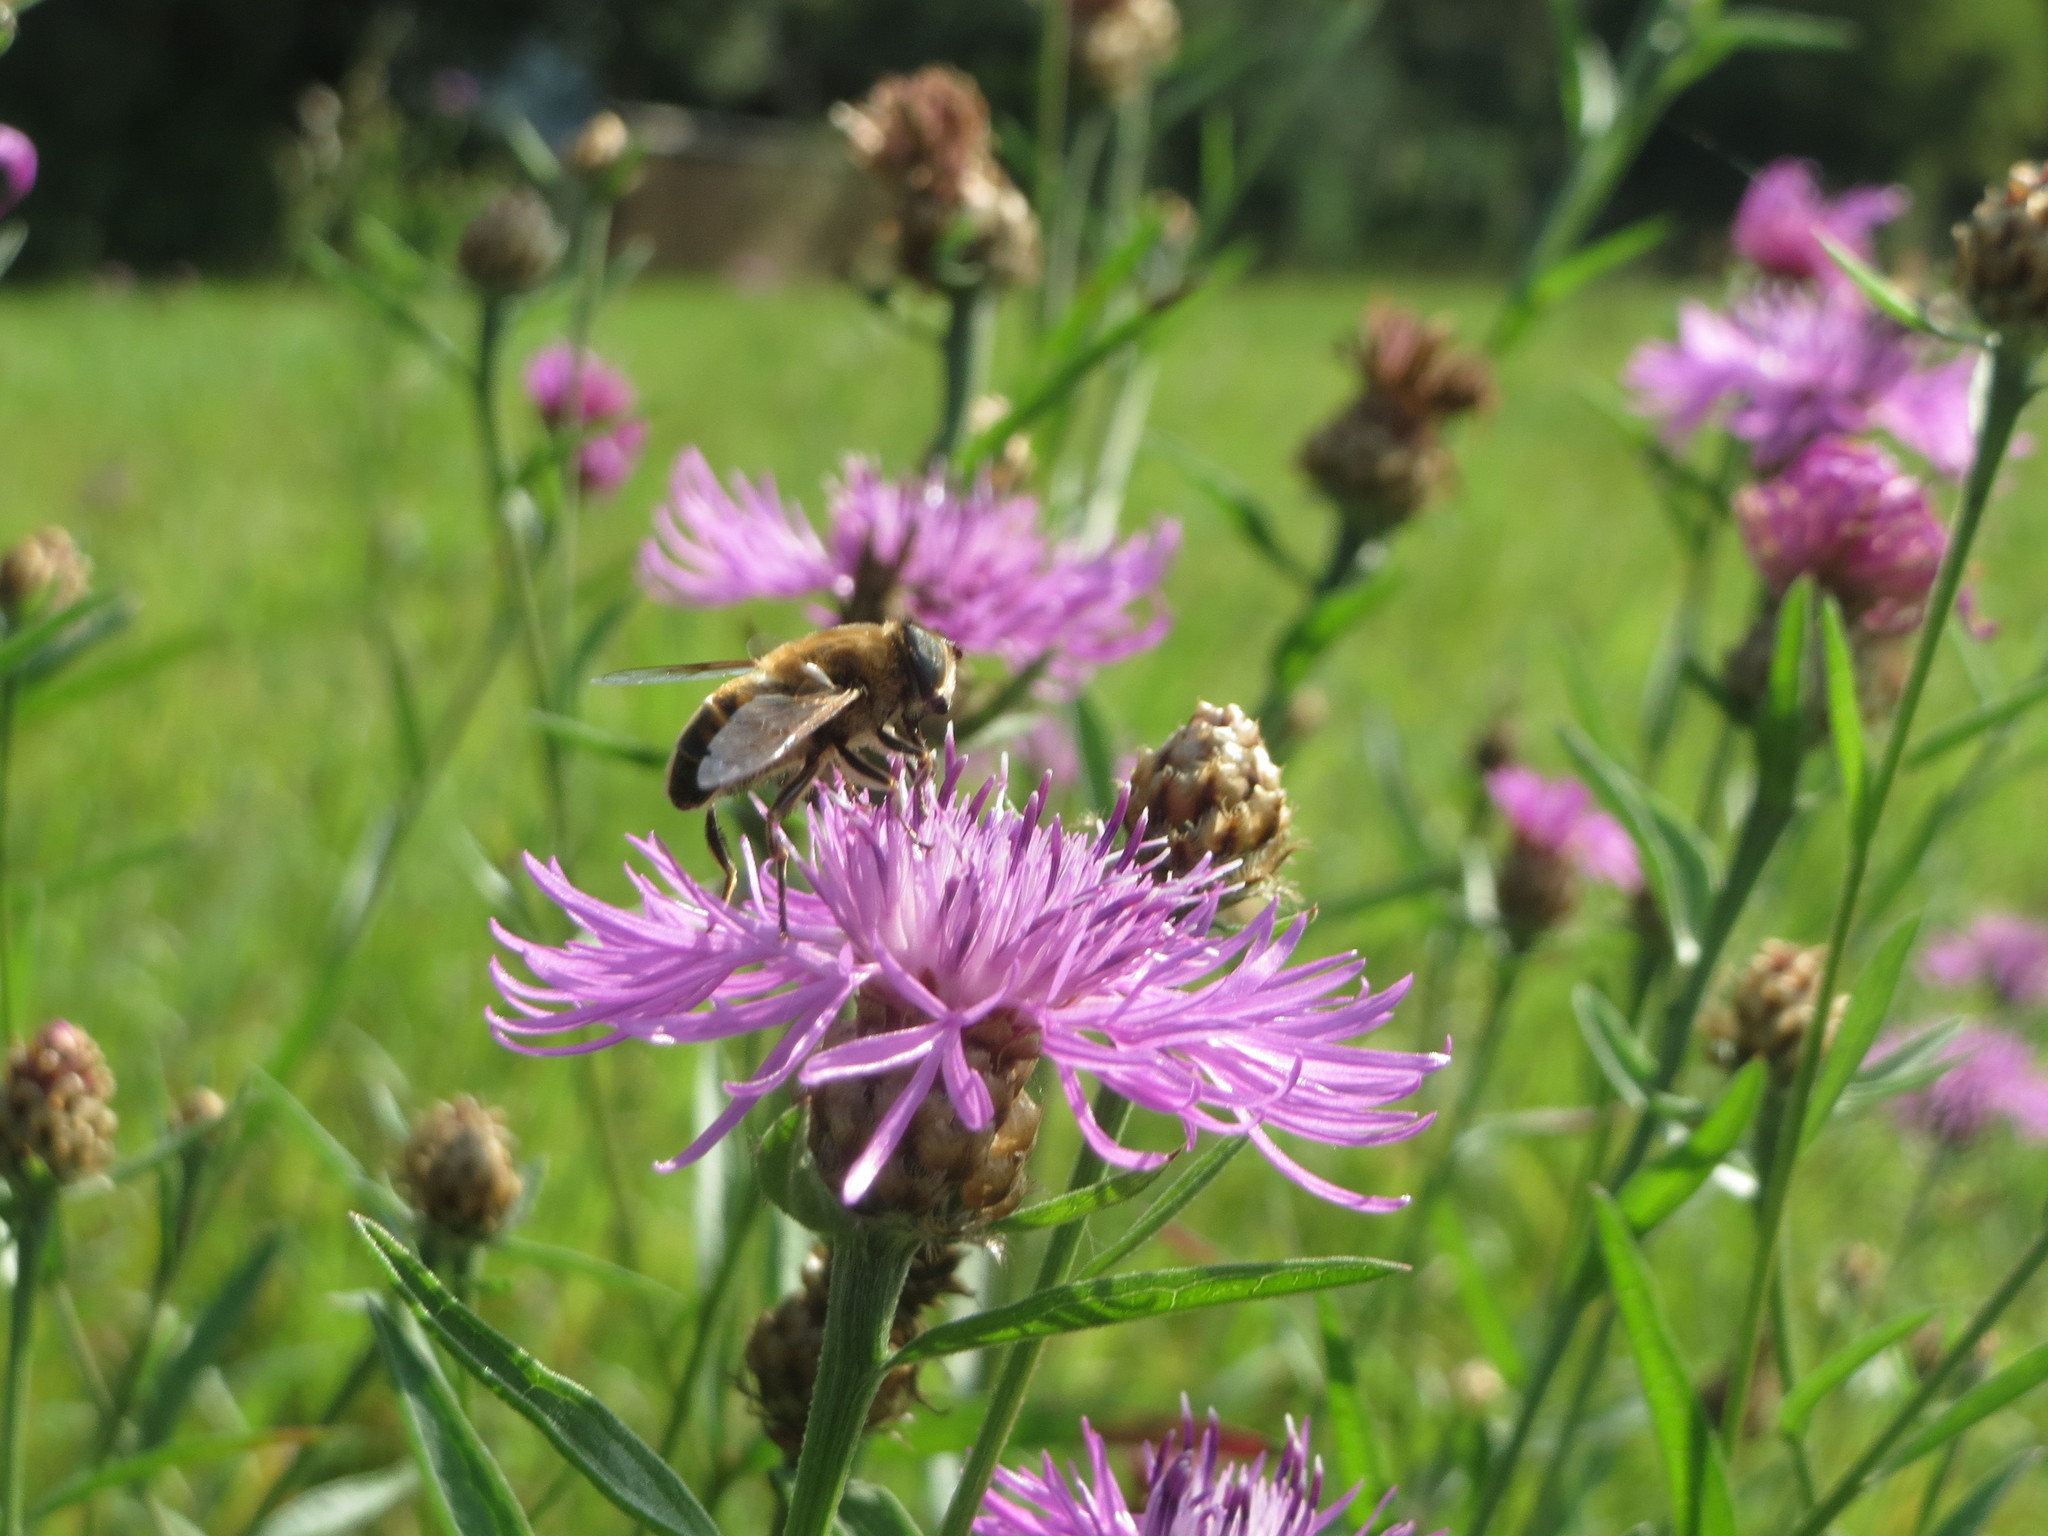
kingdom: Plantae
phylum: Tracheophyta
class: Magnoliopsida
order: Asterales
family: Asteraceae
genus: Centaurea
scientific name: Centaurea jacea
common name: Brown knapweed
